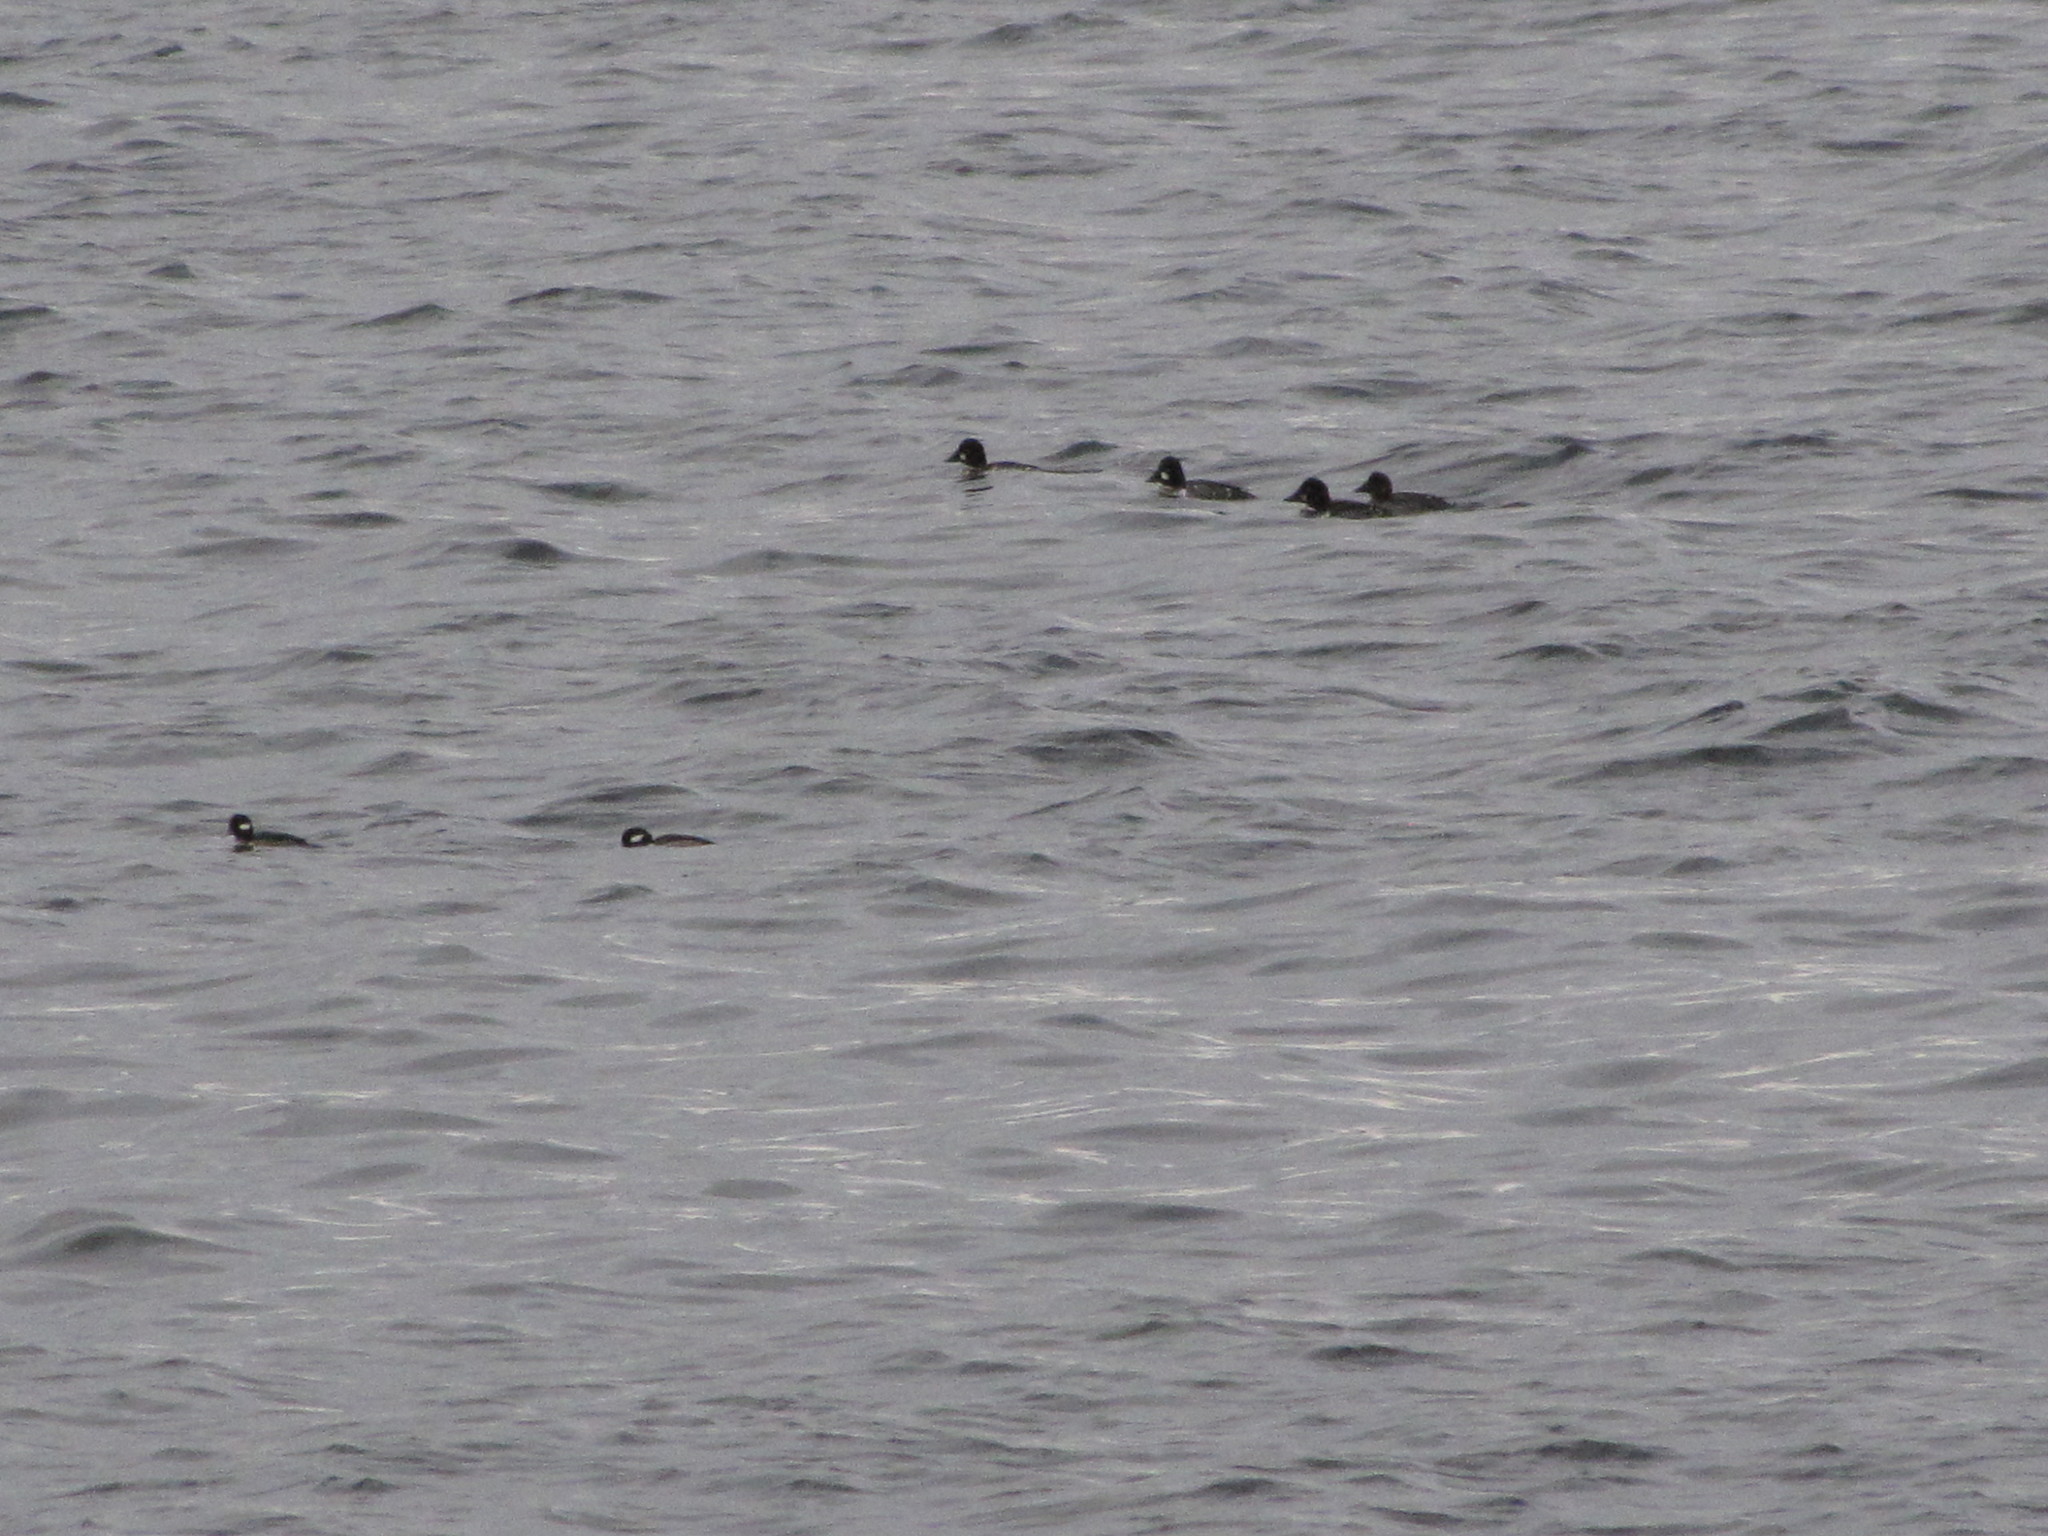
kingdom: Animalia
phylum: Chordata
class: Aves
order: Anseriformes
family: Anatidae
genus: Bucephala
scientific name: Bucephala clangula
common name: Common goldeneye
